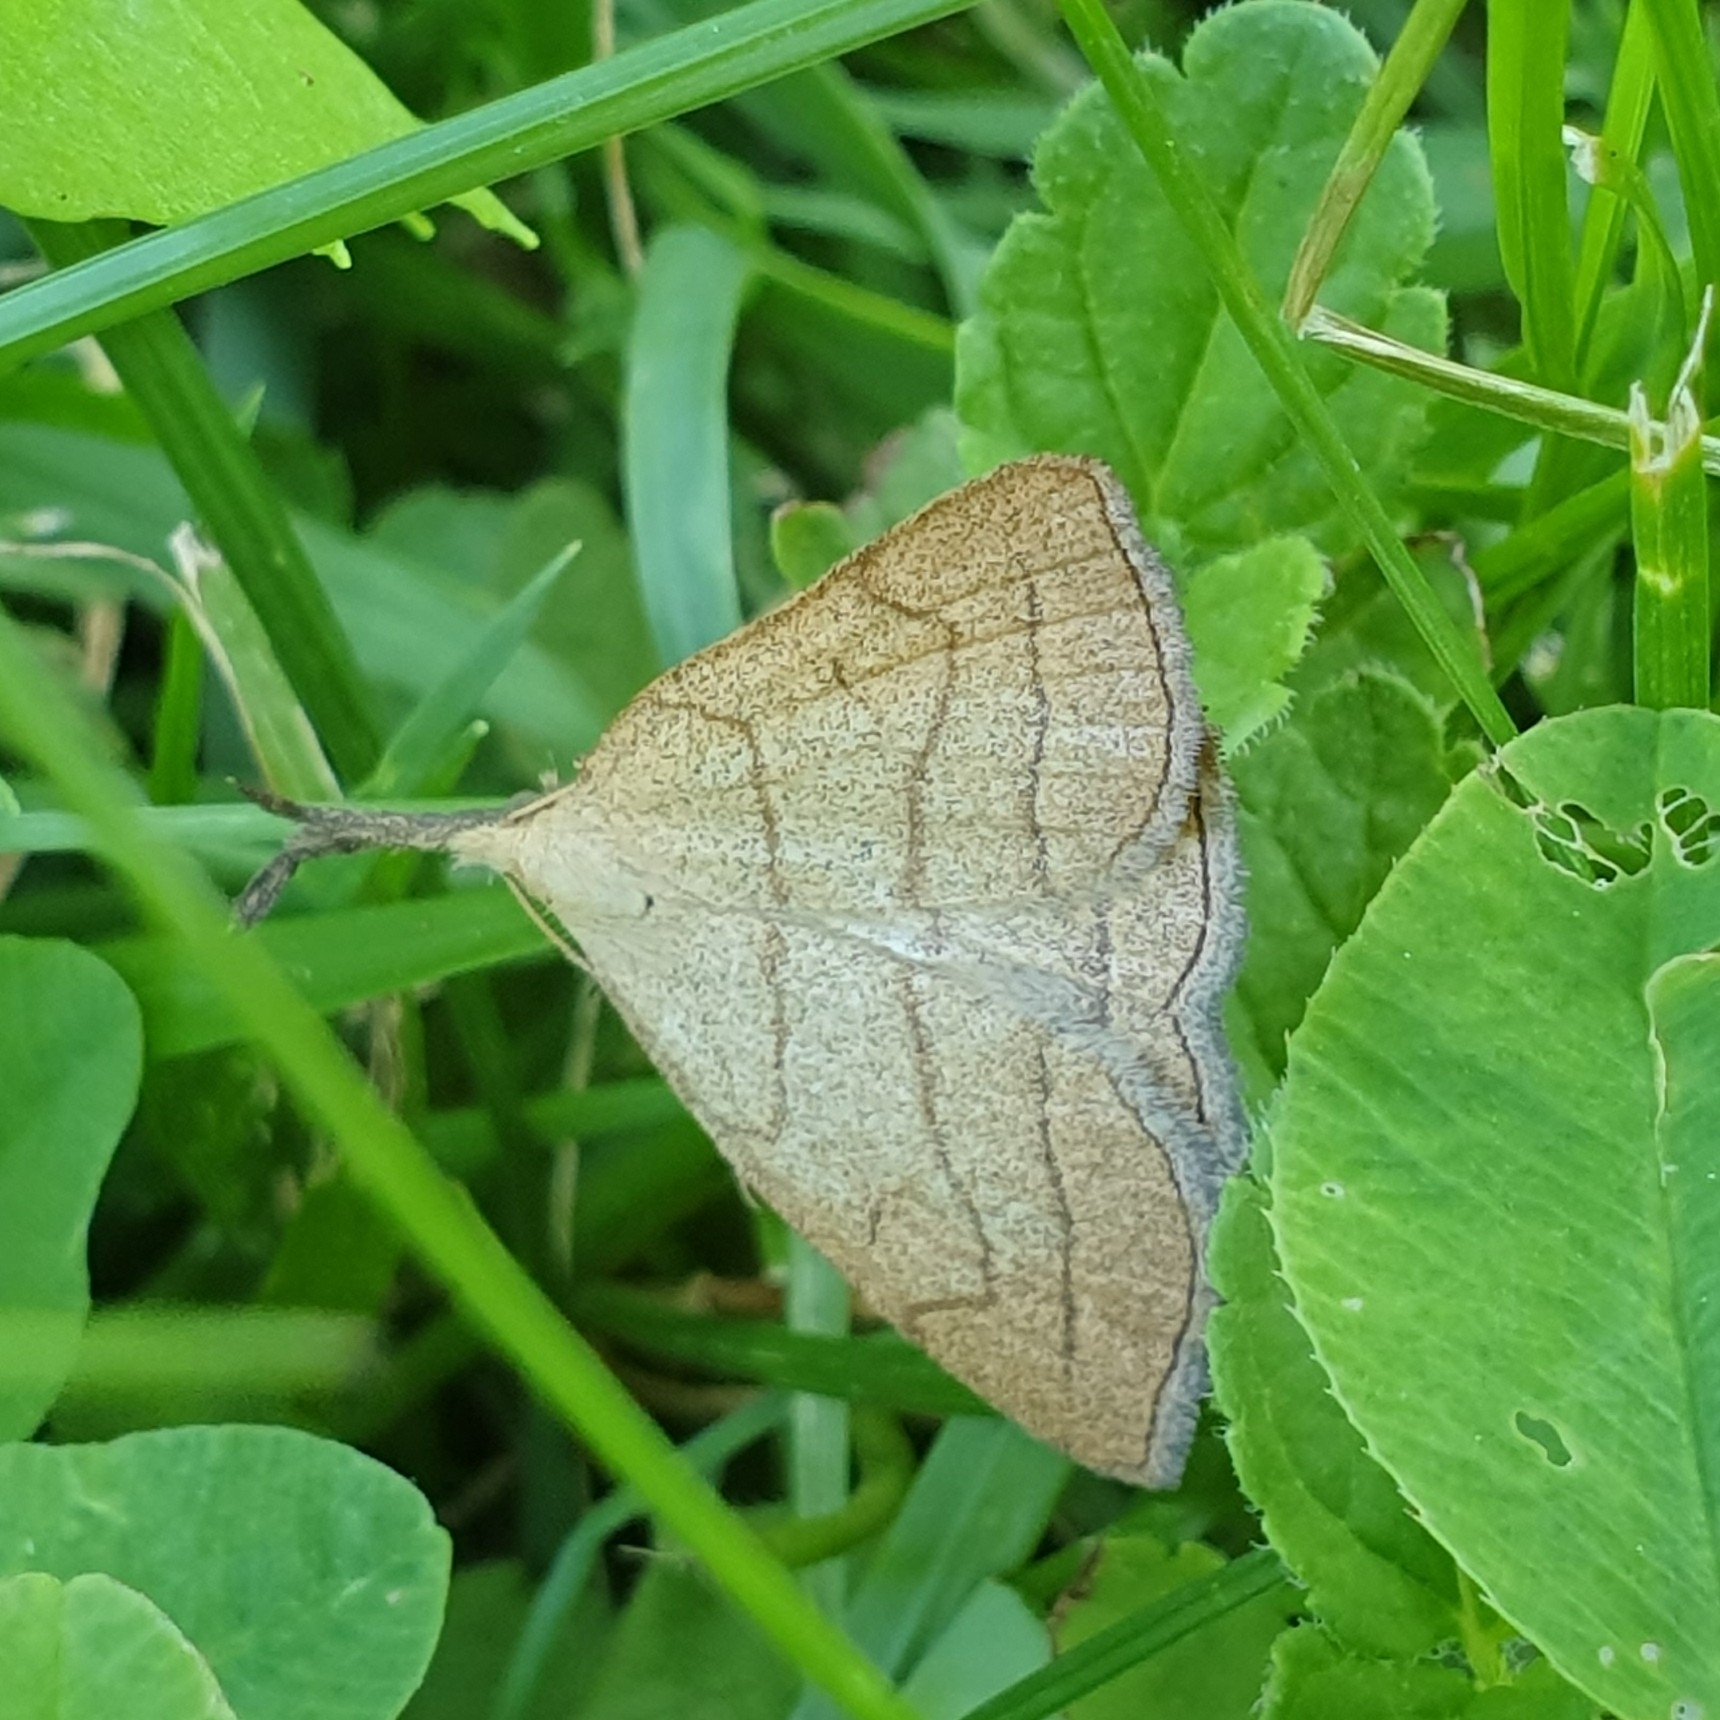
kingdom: Animalia
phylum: Arthropoda
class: Insecta
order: Lepidoptera
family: Erebidae
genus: Polypogon
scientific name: Polypogon tentacularia
